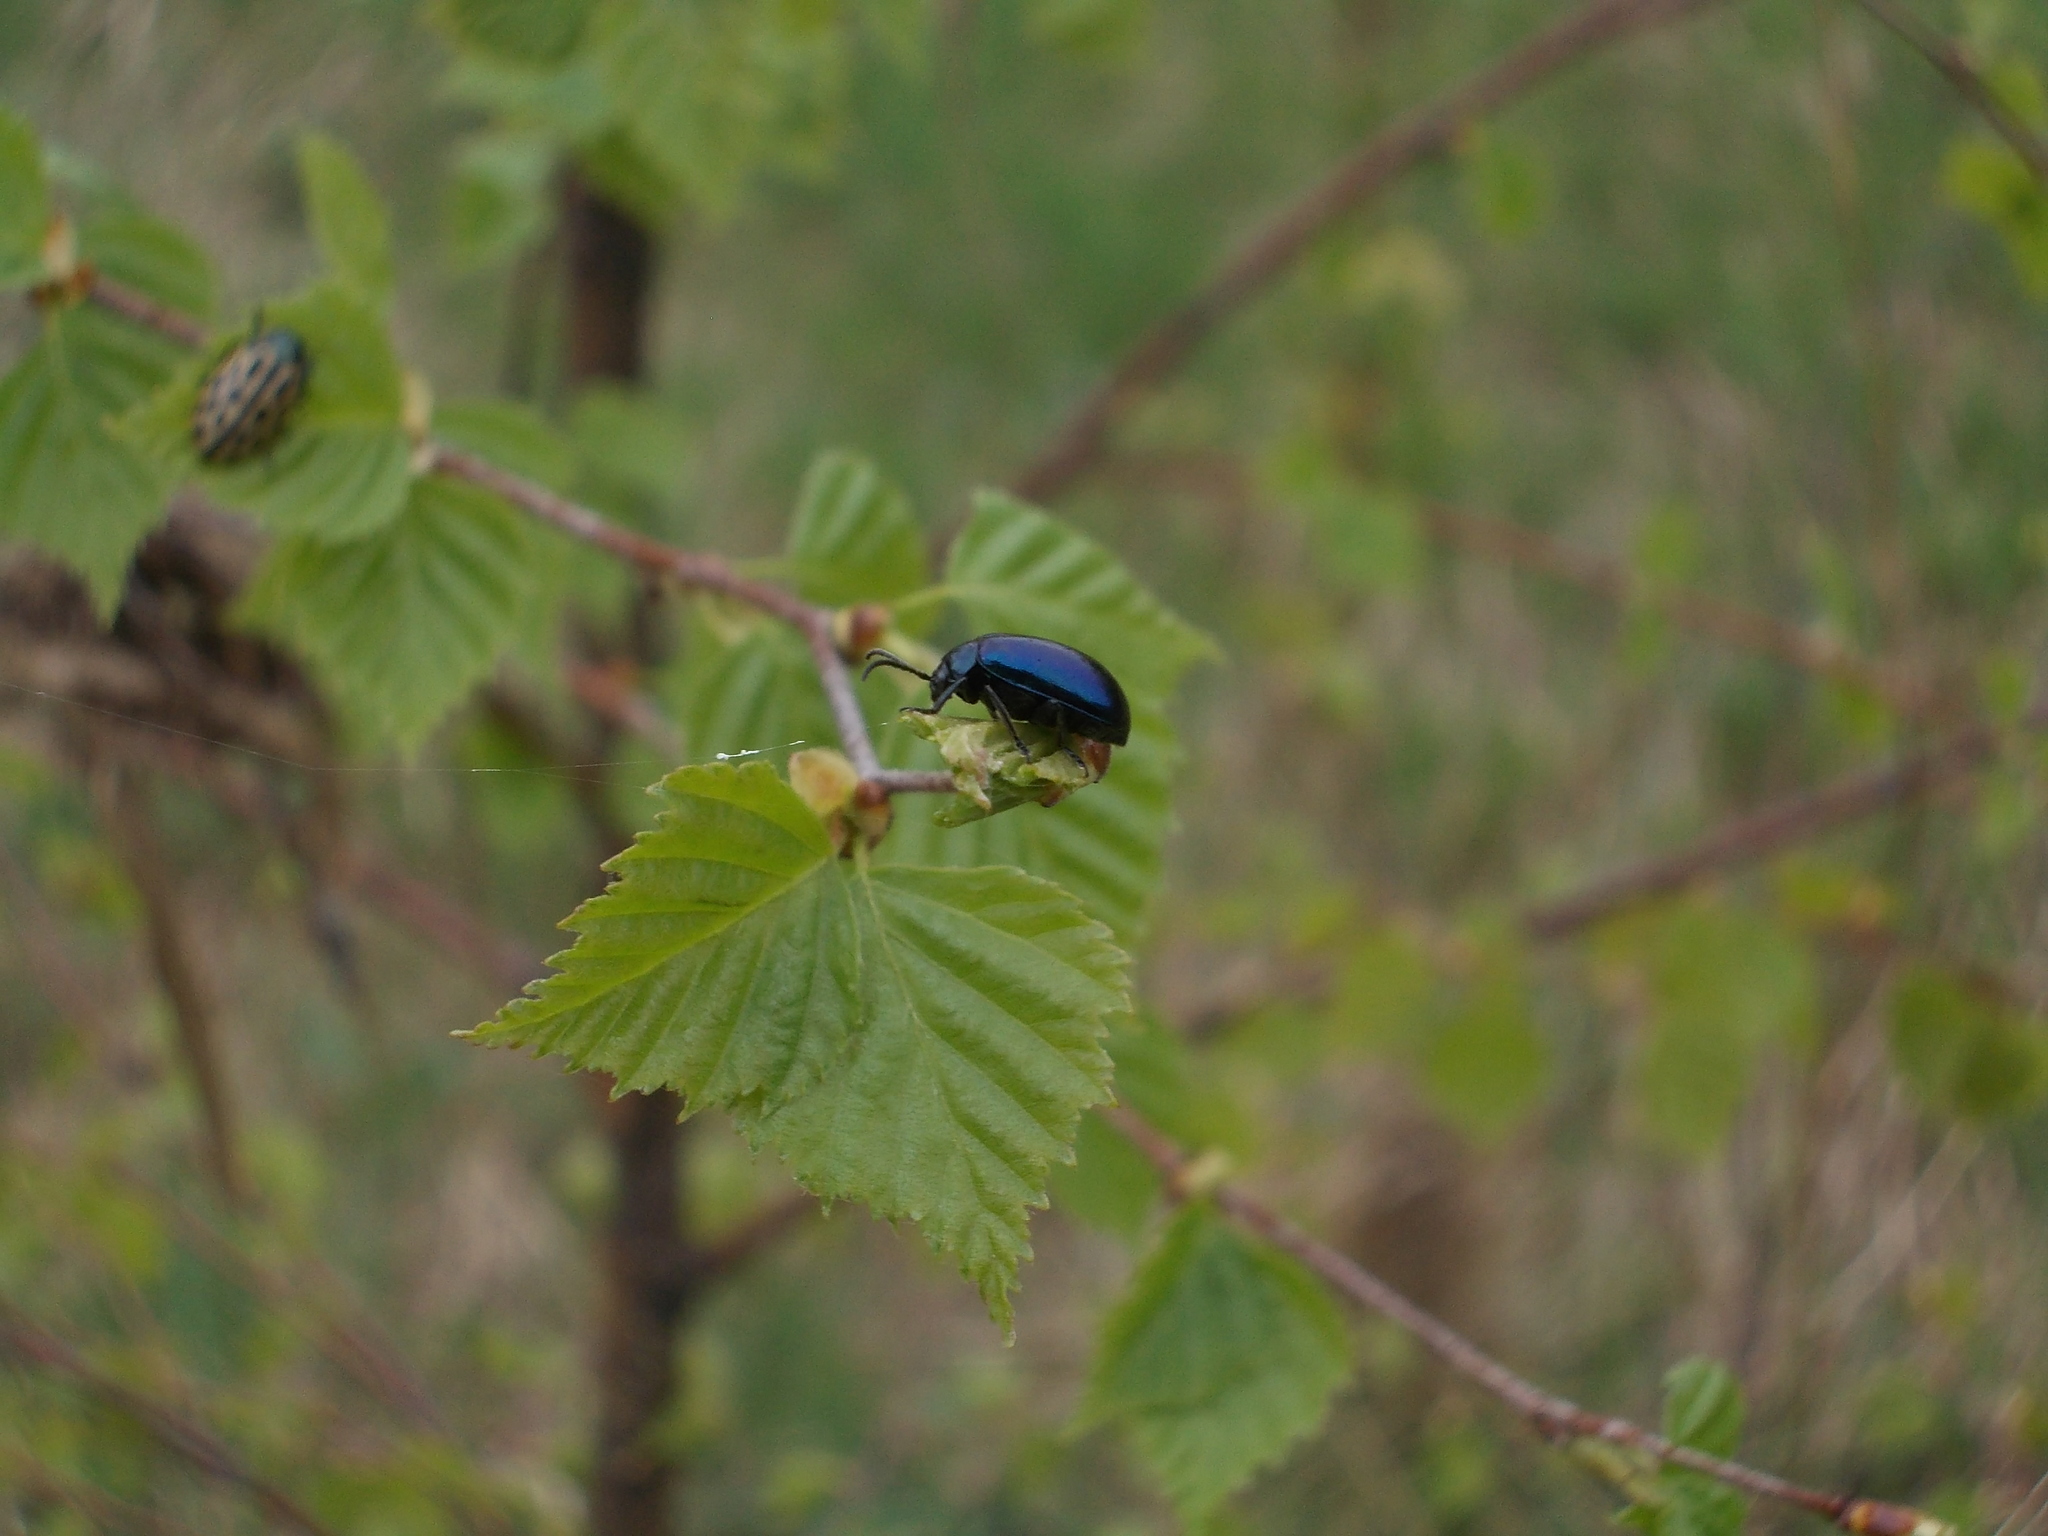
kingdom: Animalia
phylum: Arthropoda
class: Insecta
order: Coleoptera
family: Chrysomelidae
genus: Agelastica
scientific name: Agelastica alni
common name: Alder leaf beetle
